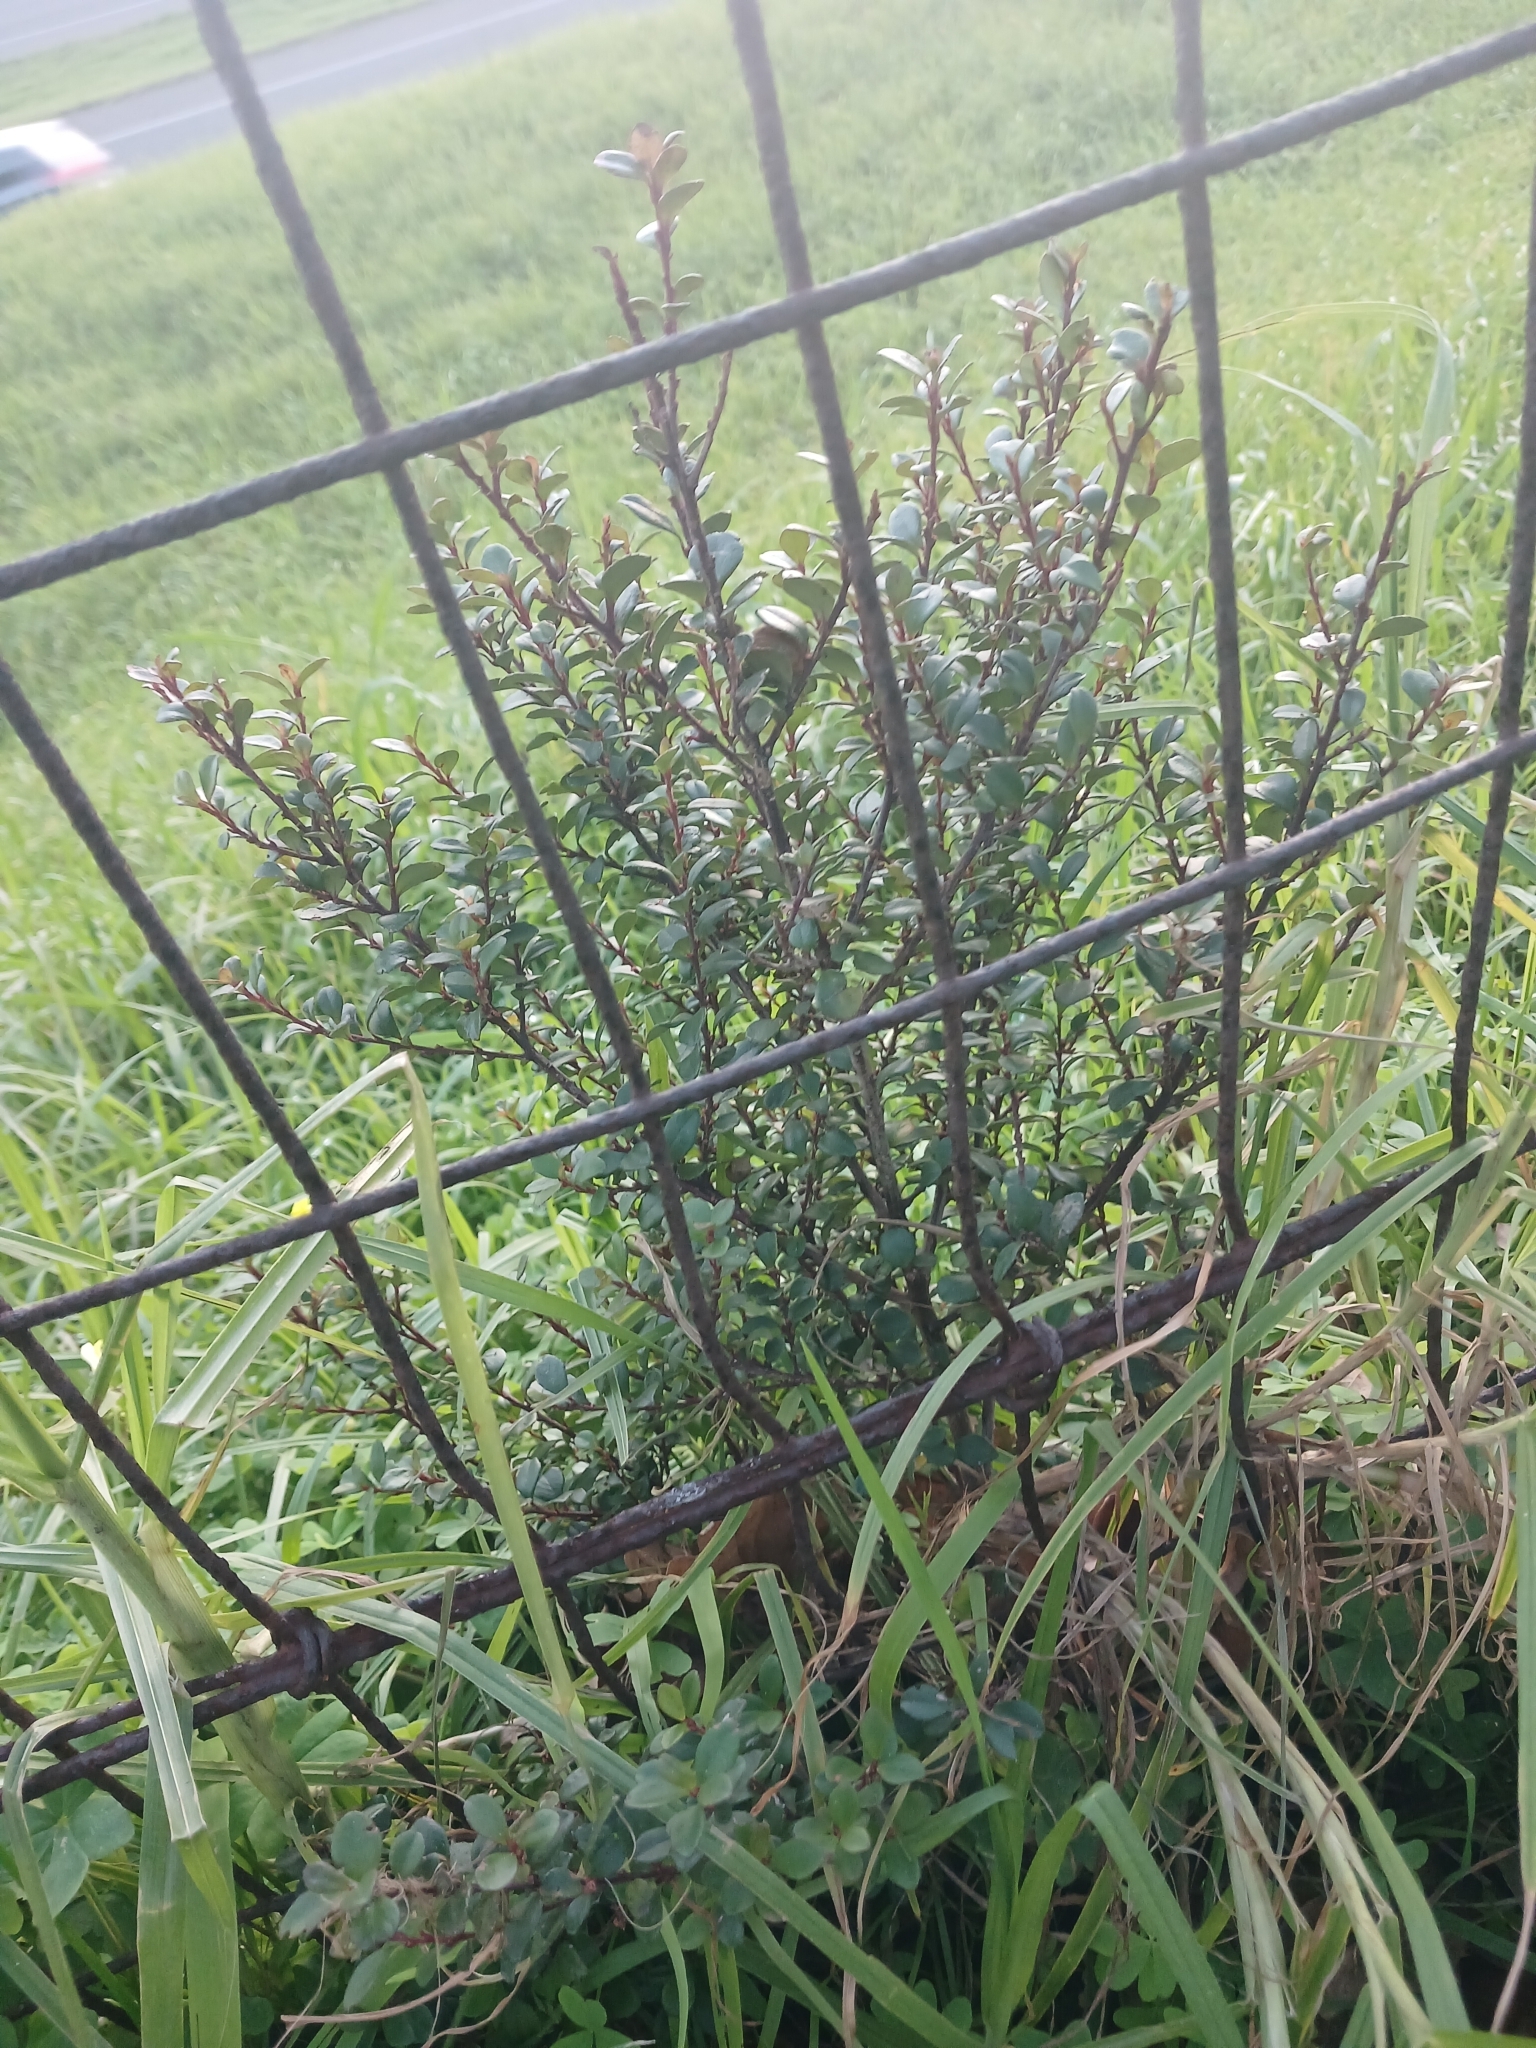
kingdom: Plantae
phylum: Tracheophyta
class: Magnoliopsida
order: Ericales
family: Primulaceae
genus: Myrsine
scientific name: Myrsine africana
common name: African-boxwood
